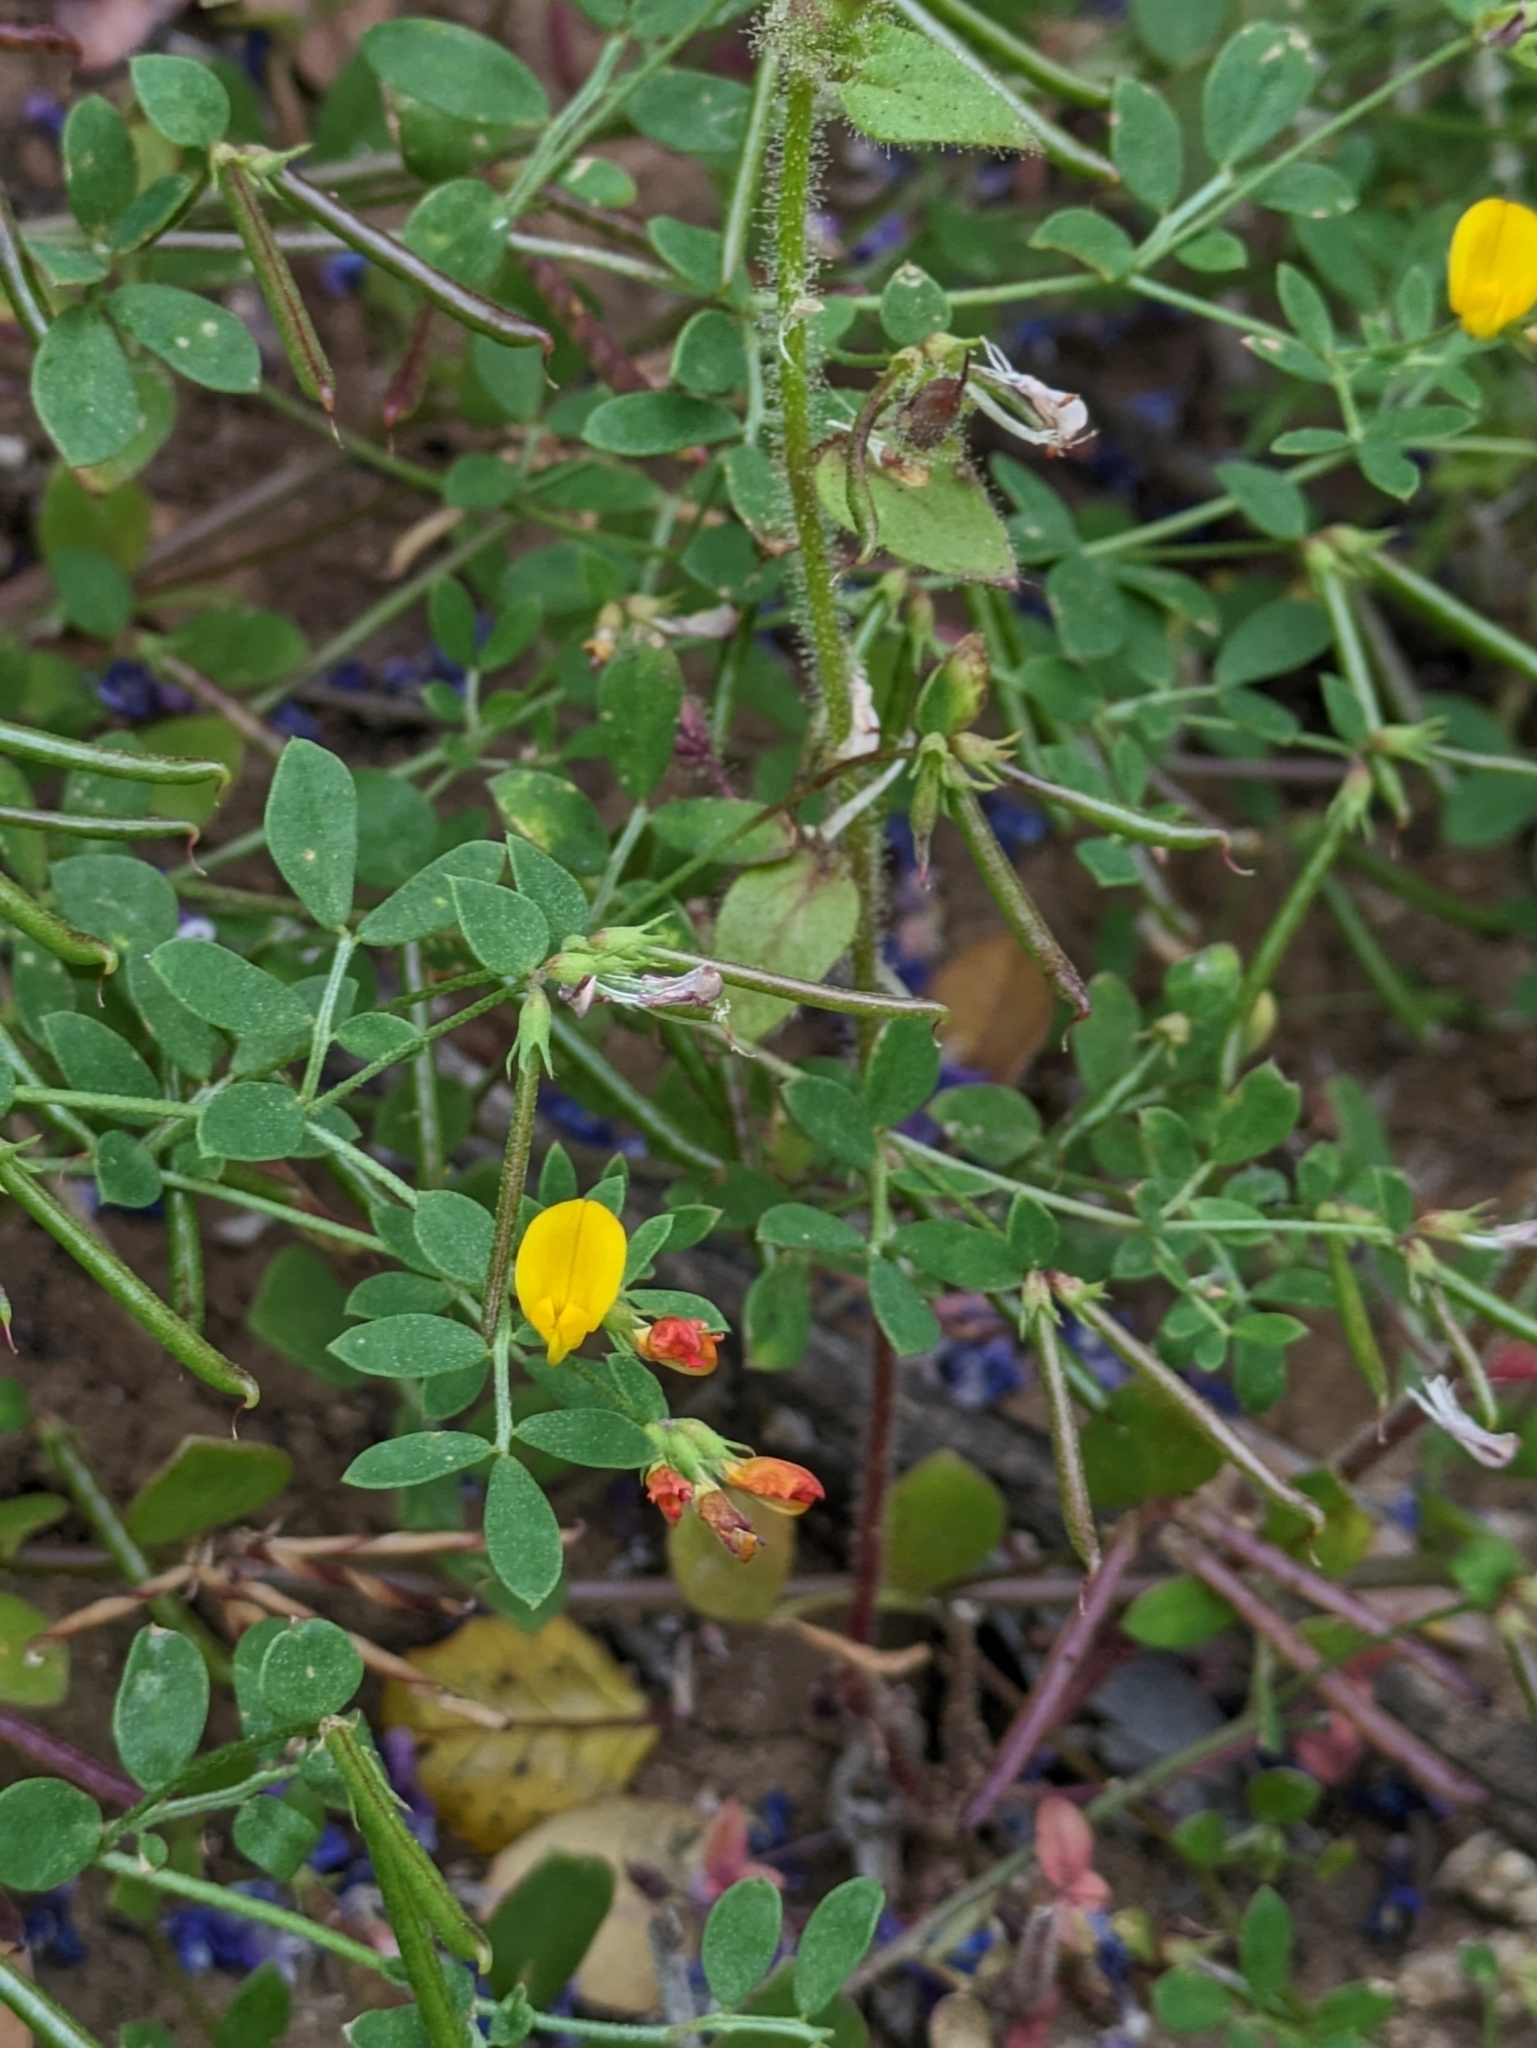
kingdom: Plantae
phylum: Tracheophyta
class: Magnoliopsida
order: Fabales
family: Fabaceae
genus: Acmispon
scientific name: Acmispon maritimus
